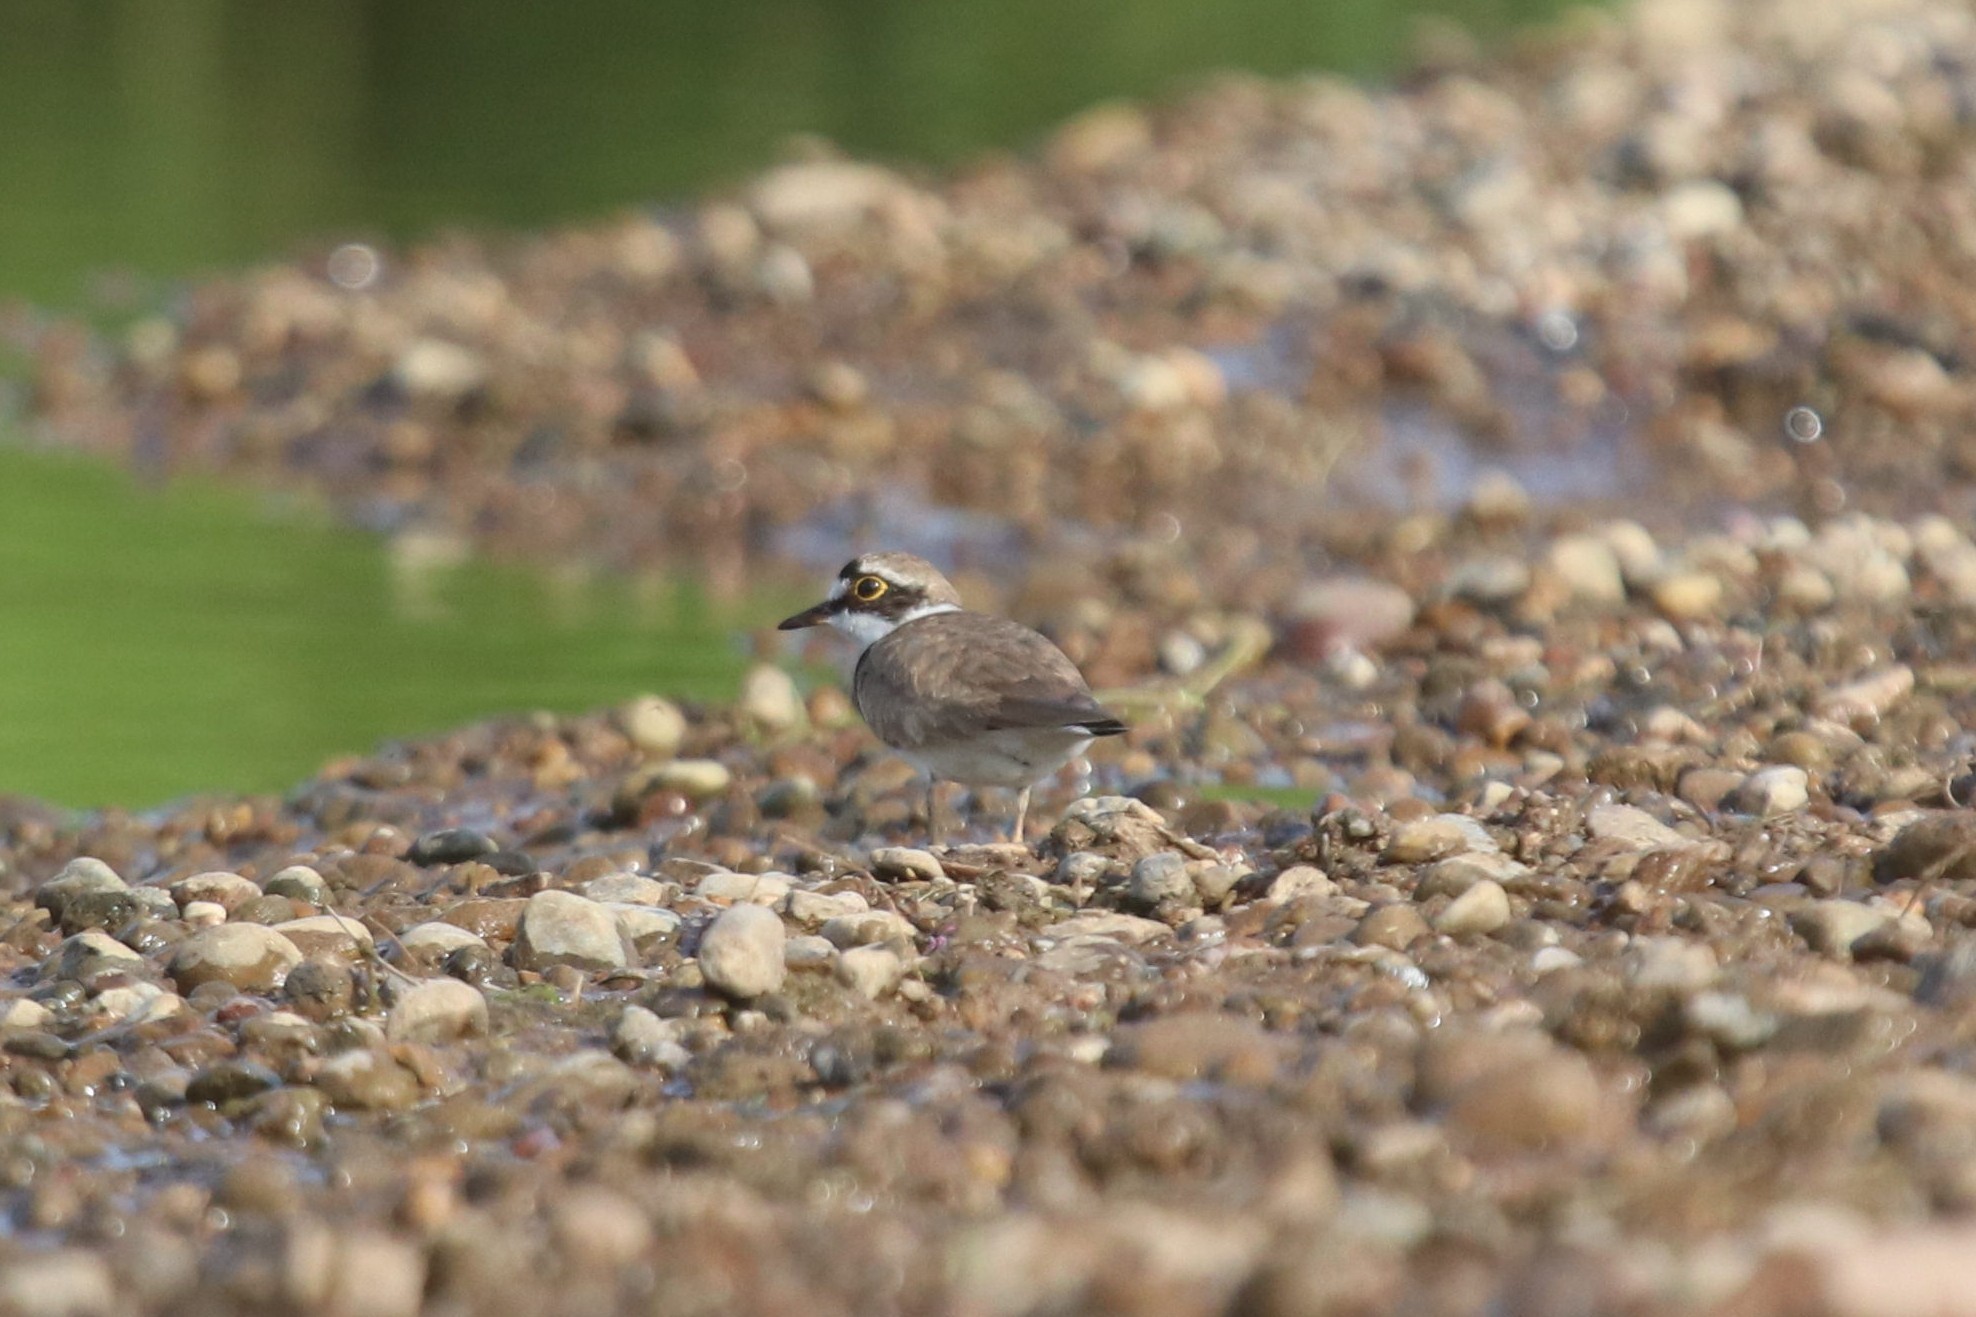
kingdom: Animalia
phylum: Chordata
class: Aves
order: Charadriiformes
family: Charadriidae
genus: Charadrius
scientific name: Charadrius dubius
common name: Little ringed plover
